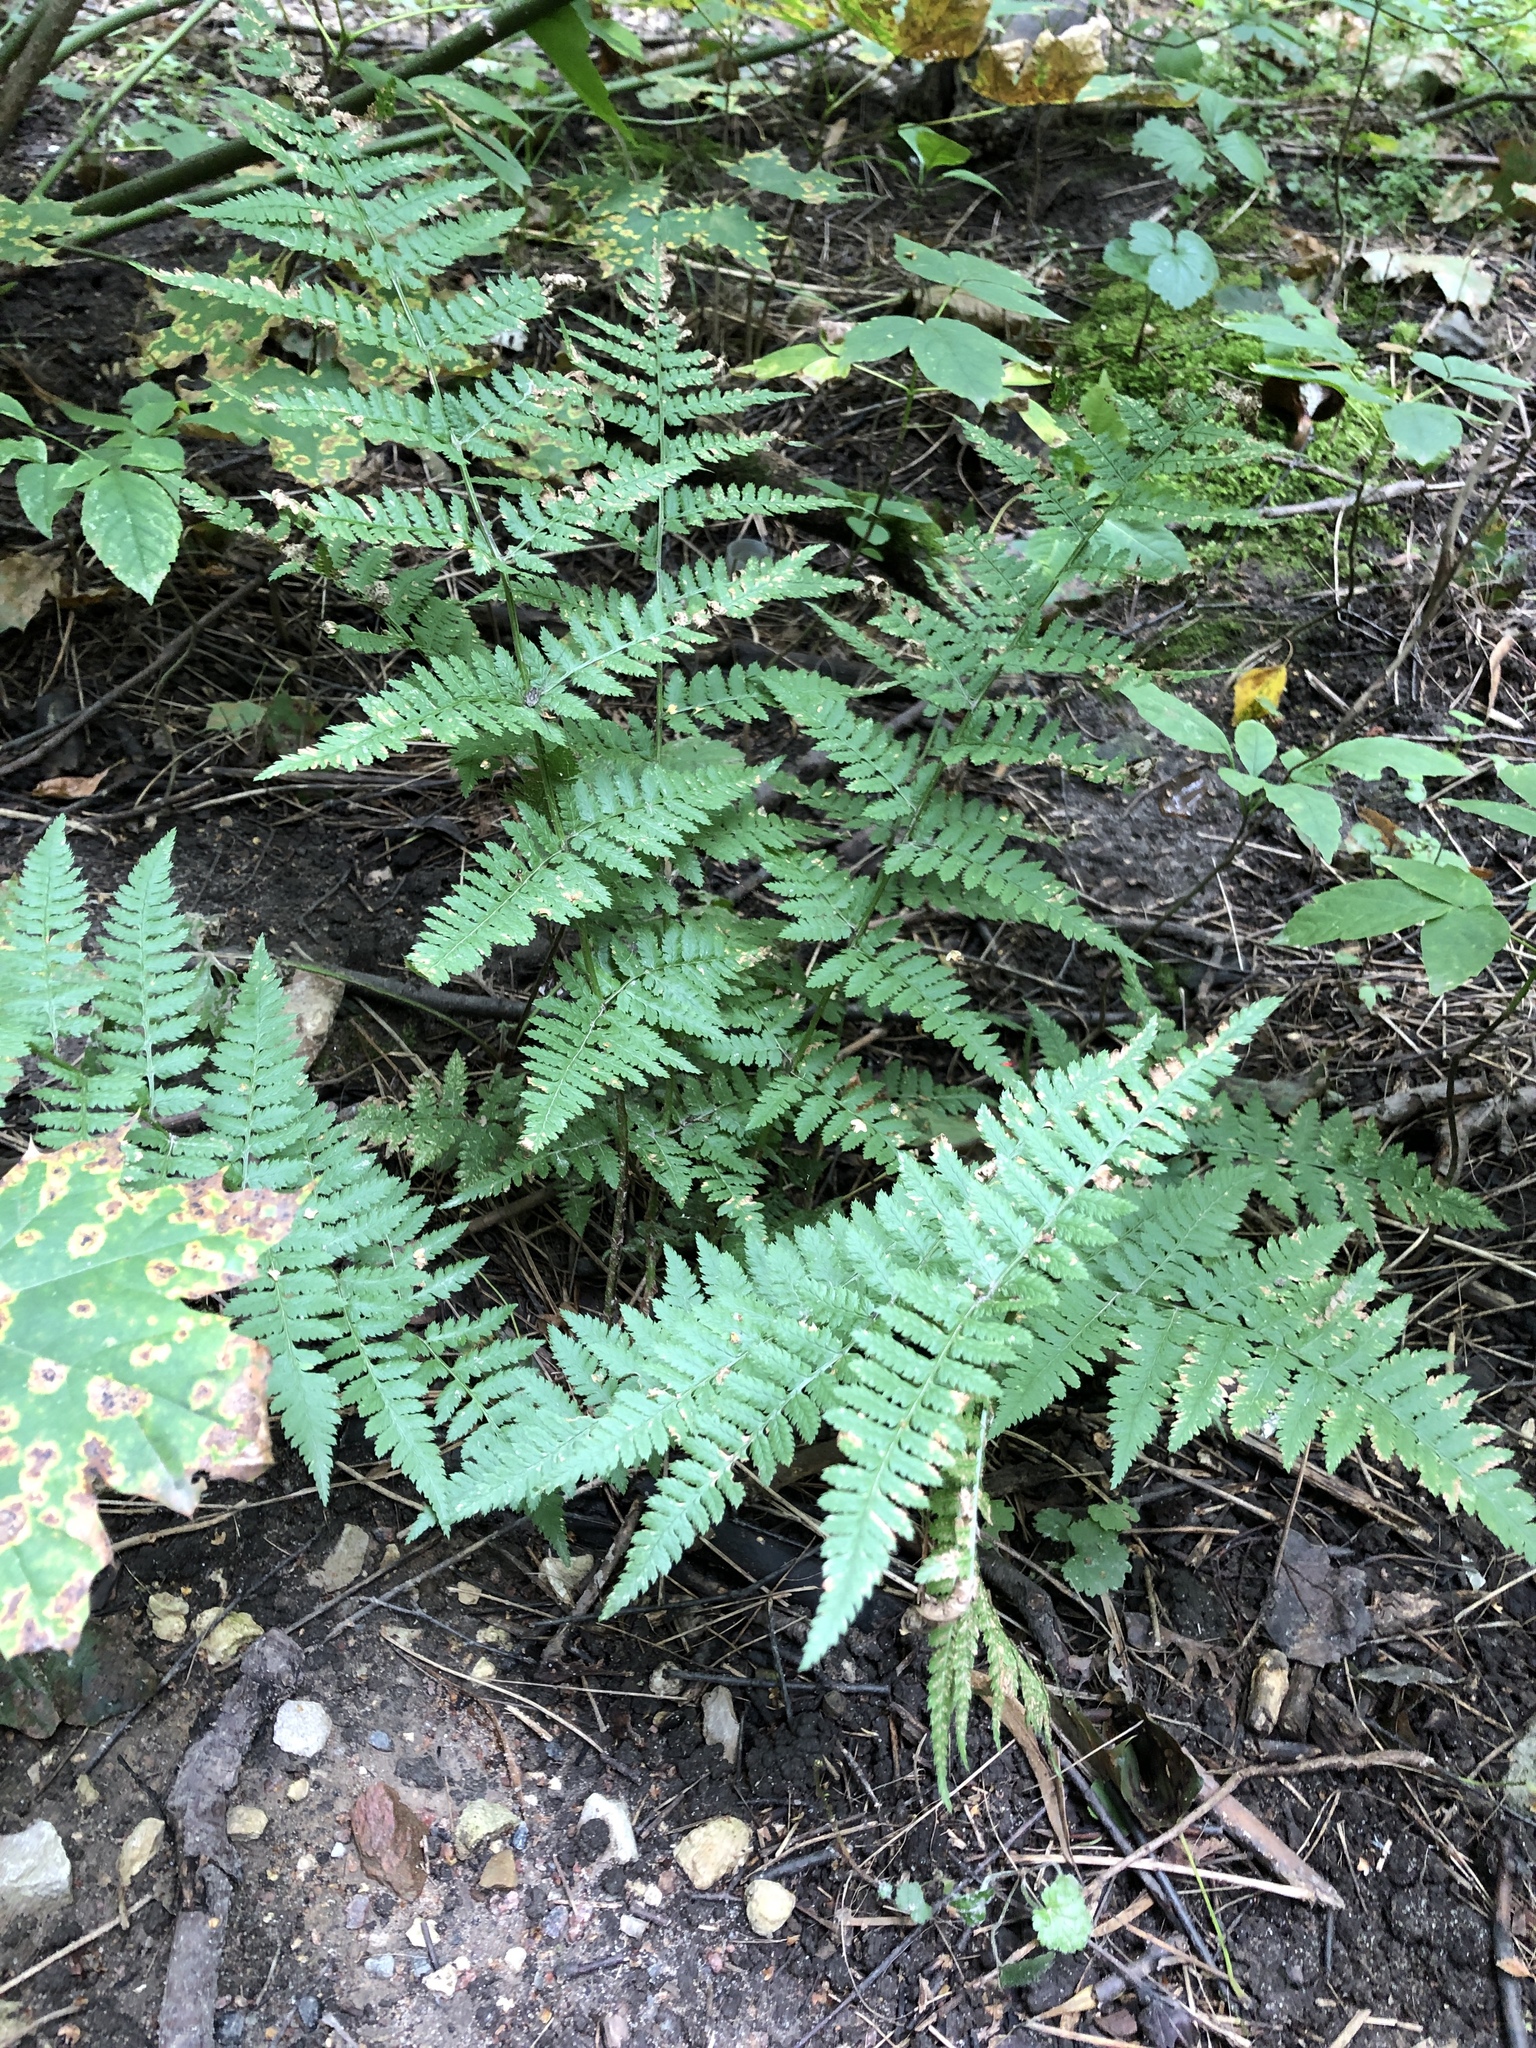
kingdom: Plantae
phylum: Tracheophyta
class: Polypodiopsida
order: Polypodiales
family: Dryopteridaceae
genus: Dryopteris
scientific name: Dryopteris carthusiana
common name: Narrow buckler-fern
